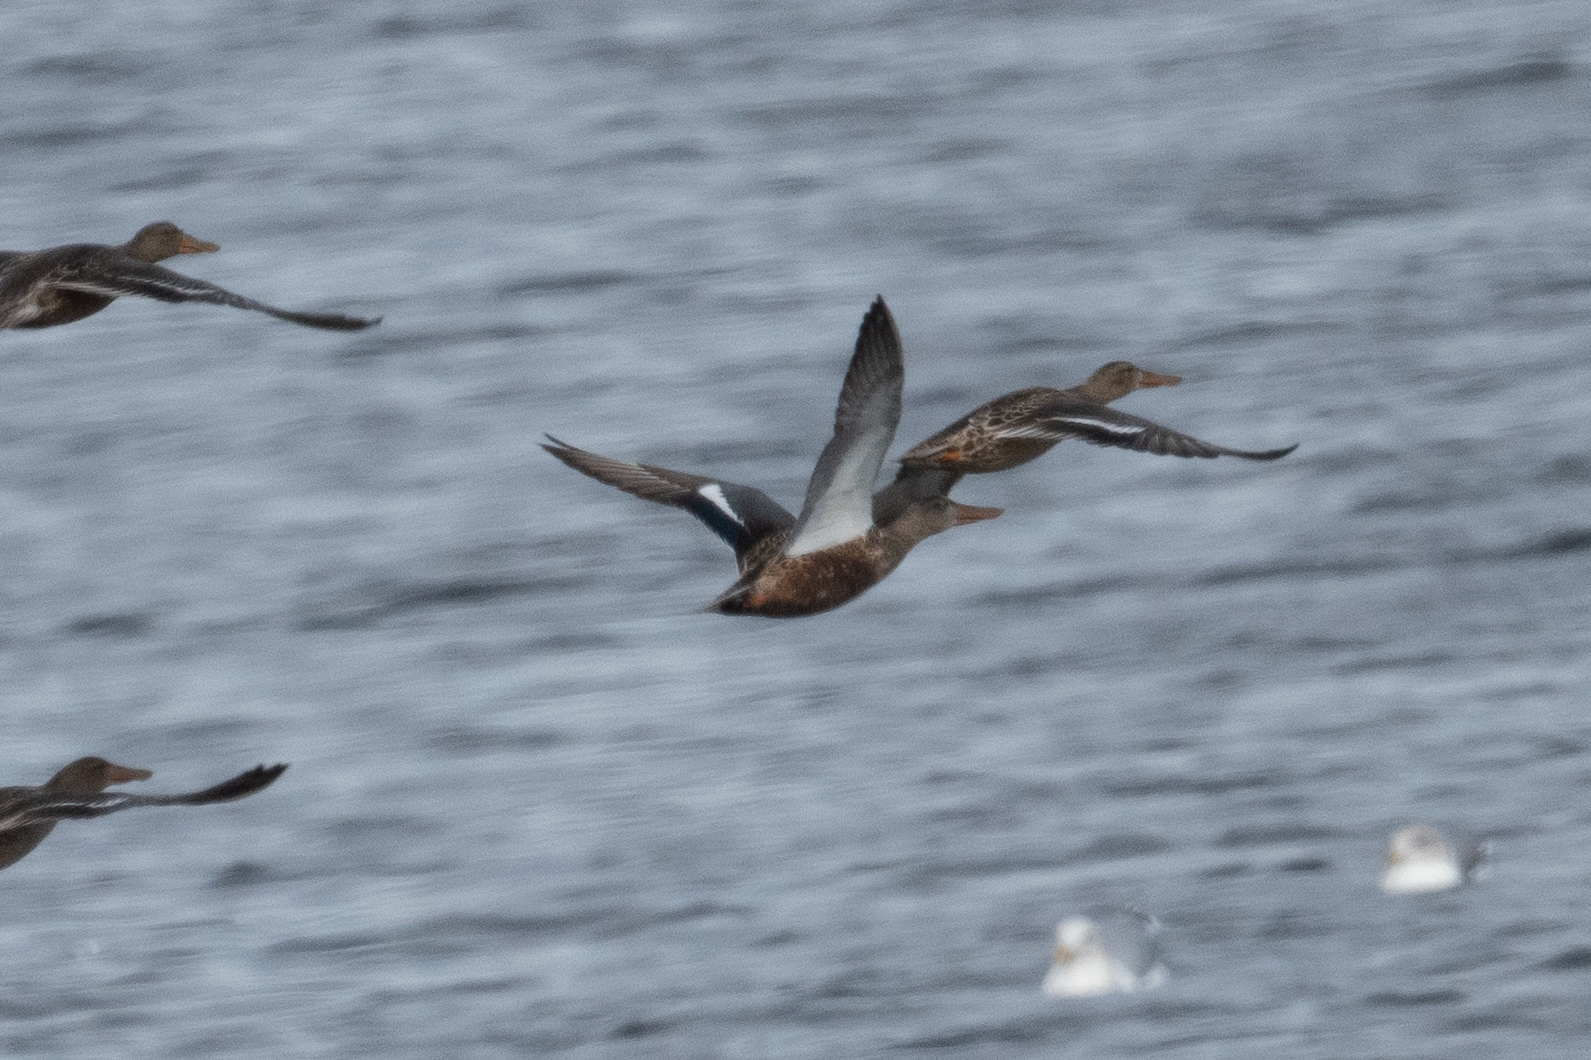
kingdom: Animalia
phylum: Chordata
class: Aves
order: Anseriformes
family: Anatidae
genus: Spatula
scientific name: Spatula clypeata
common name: Northern shoveler
